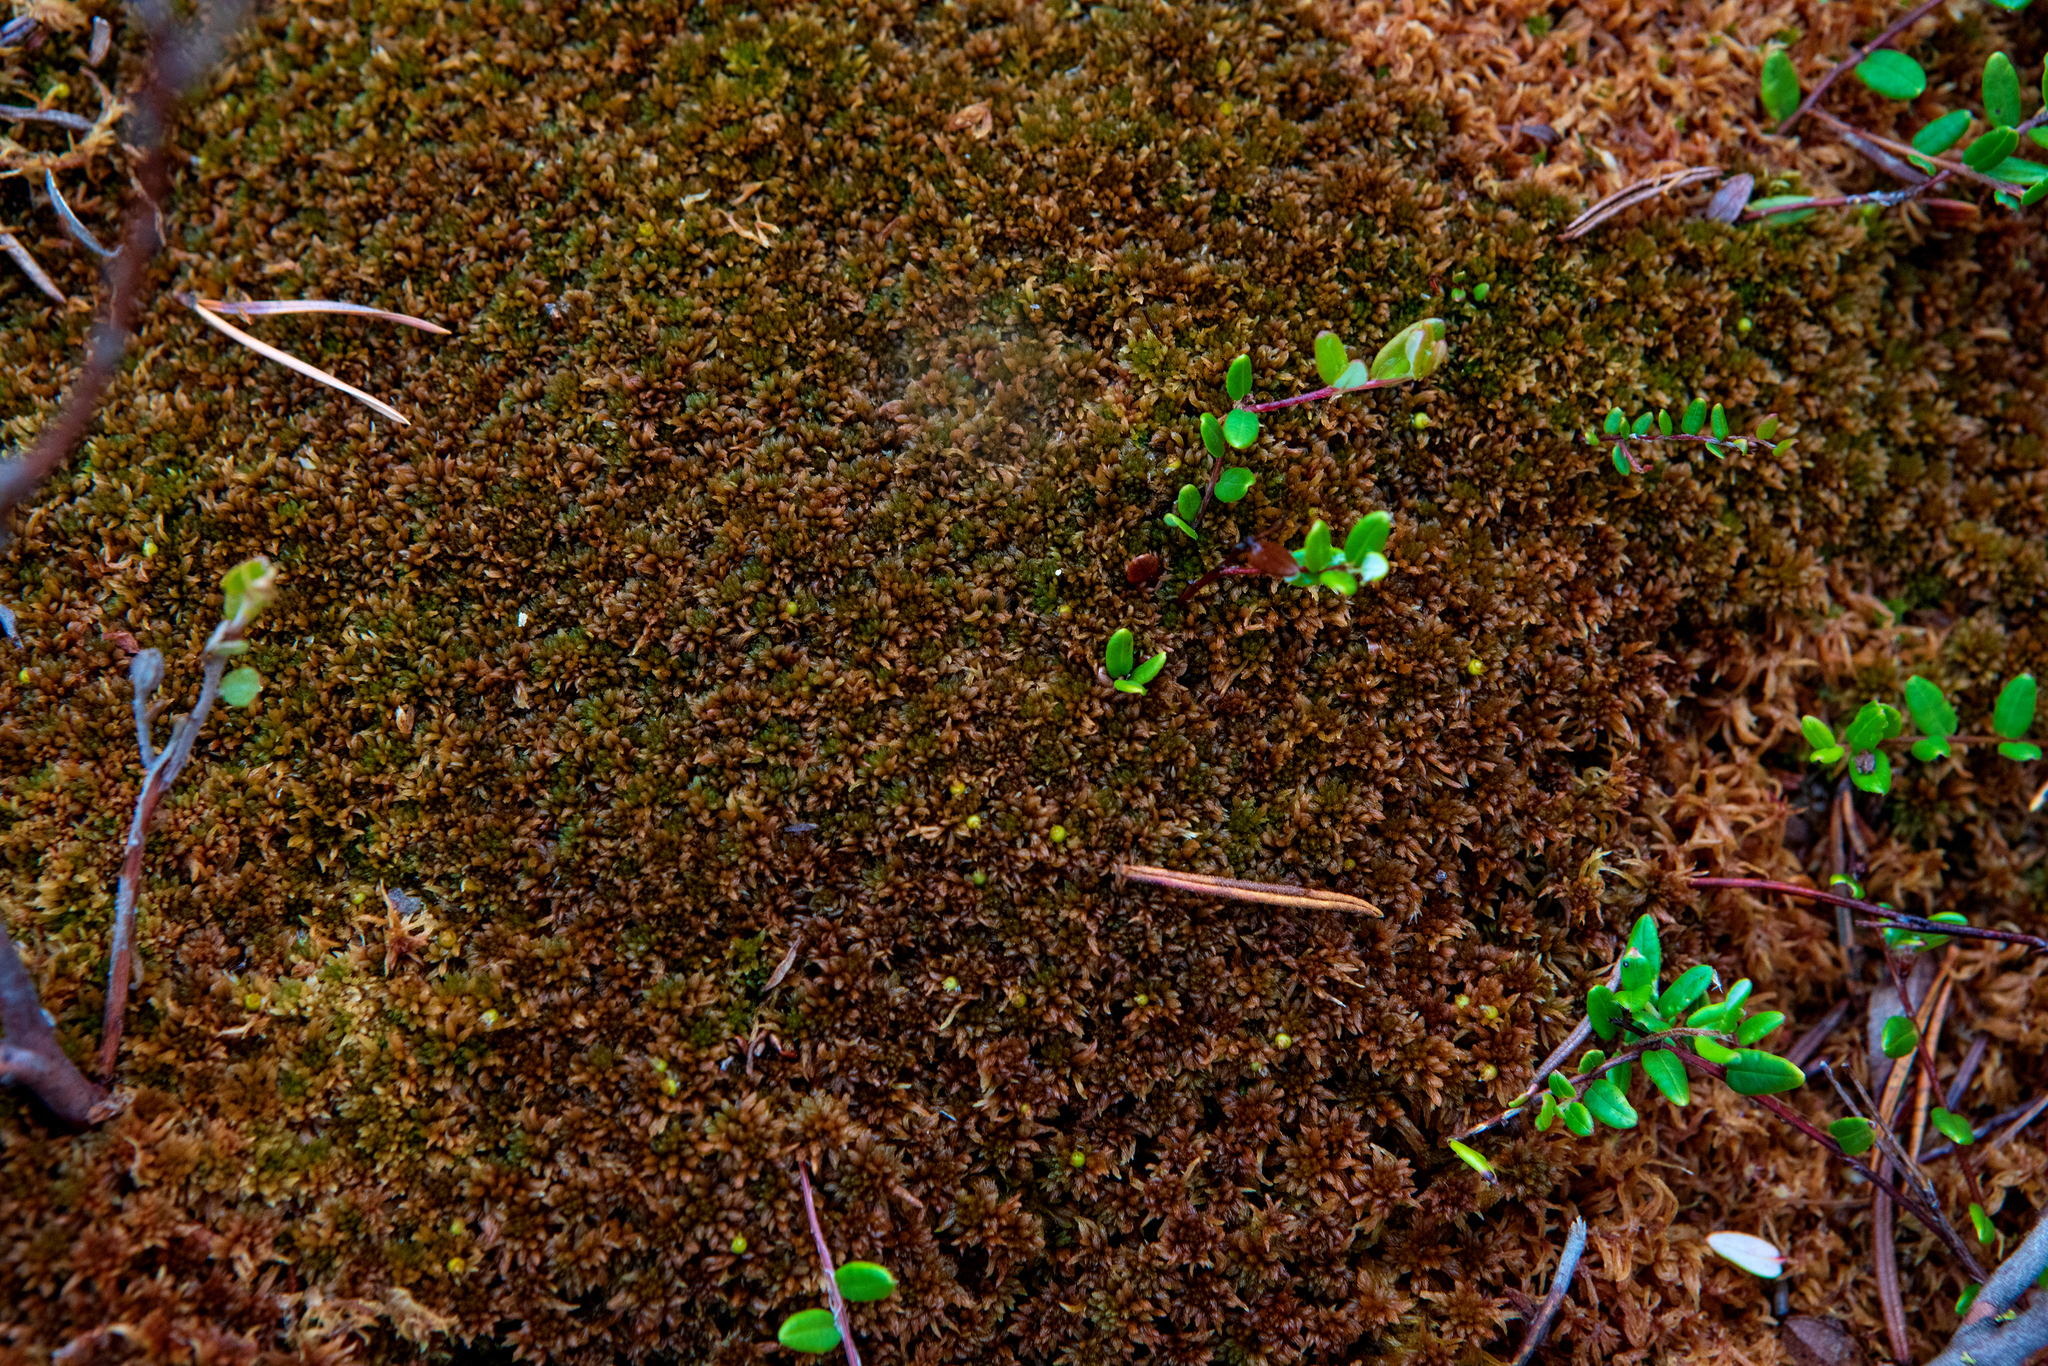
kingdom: Plantae
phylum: Bryophyta
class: Sphagnopsida
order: Sphagnales
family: Sphagnaceae
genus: Sphagnum
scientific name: Sphagnum fuscum
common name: Brown peat moss
